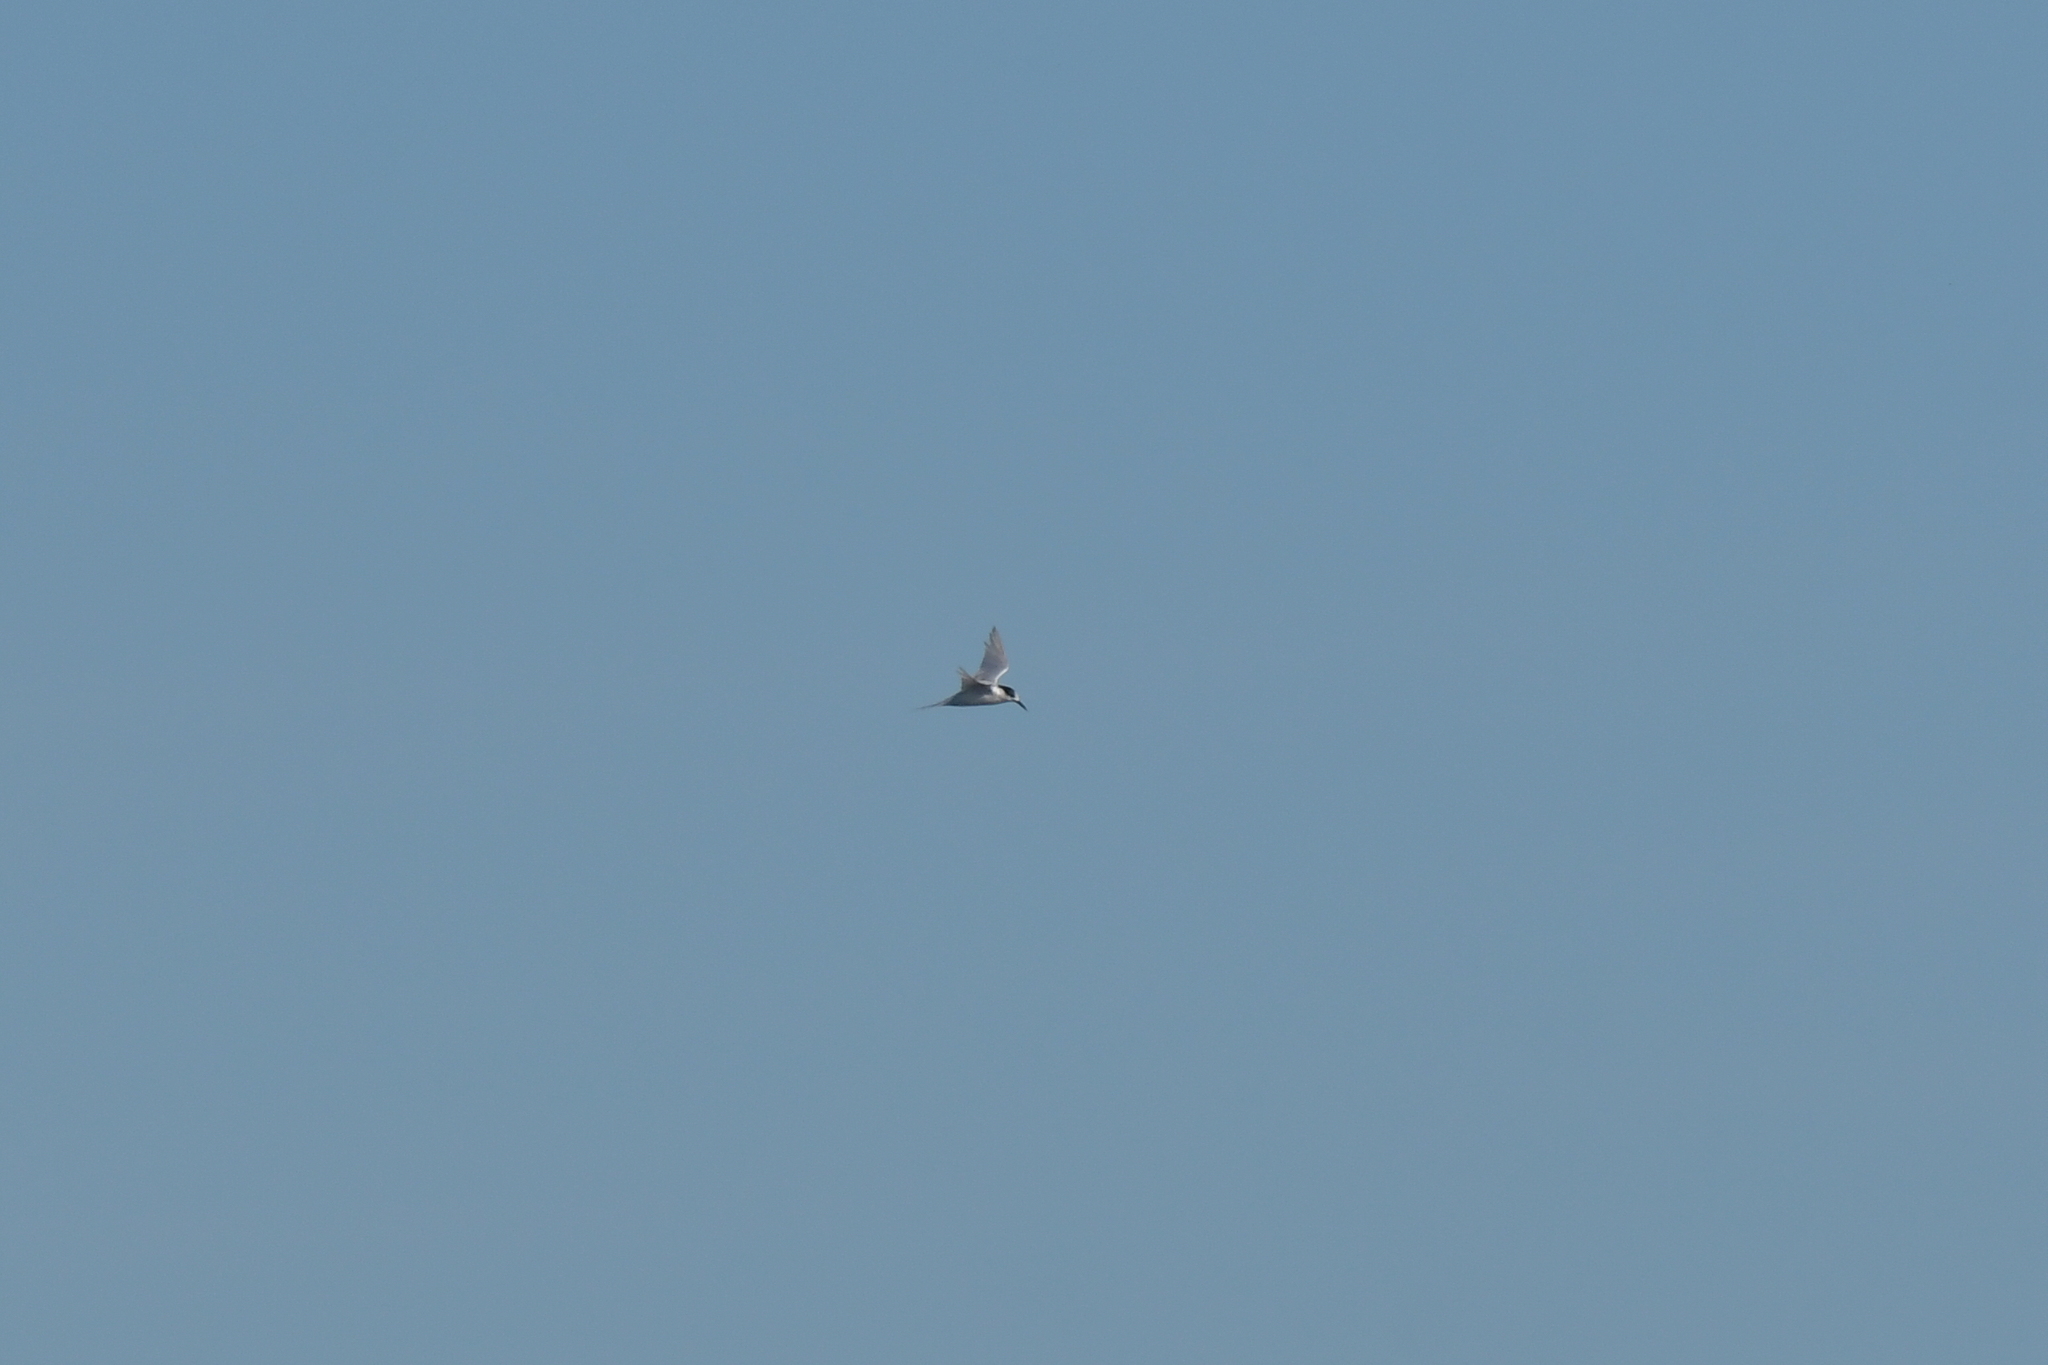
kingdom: Animalia
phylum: Chordata
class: Aves
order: Charadriiformes
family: Laridae
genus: Sterna
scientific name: Sterna striata
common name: White-fronted tern
